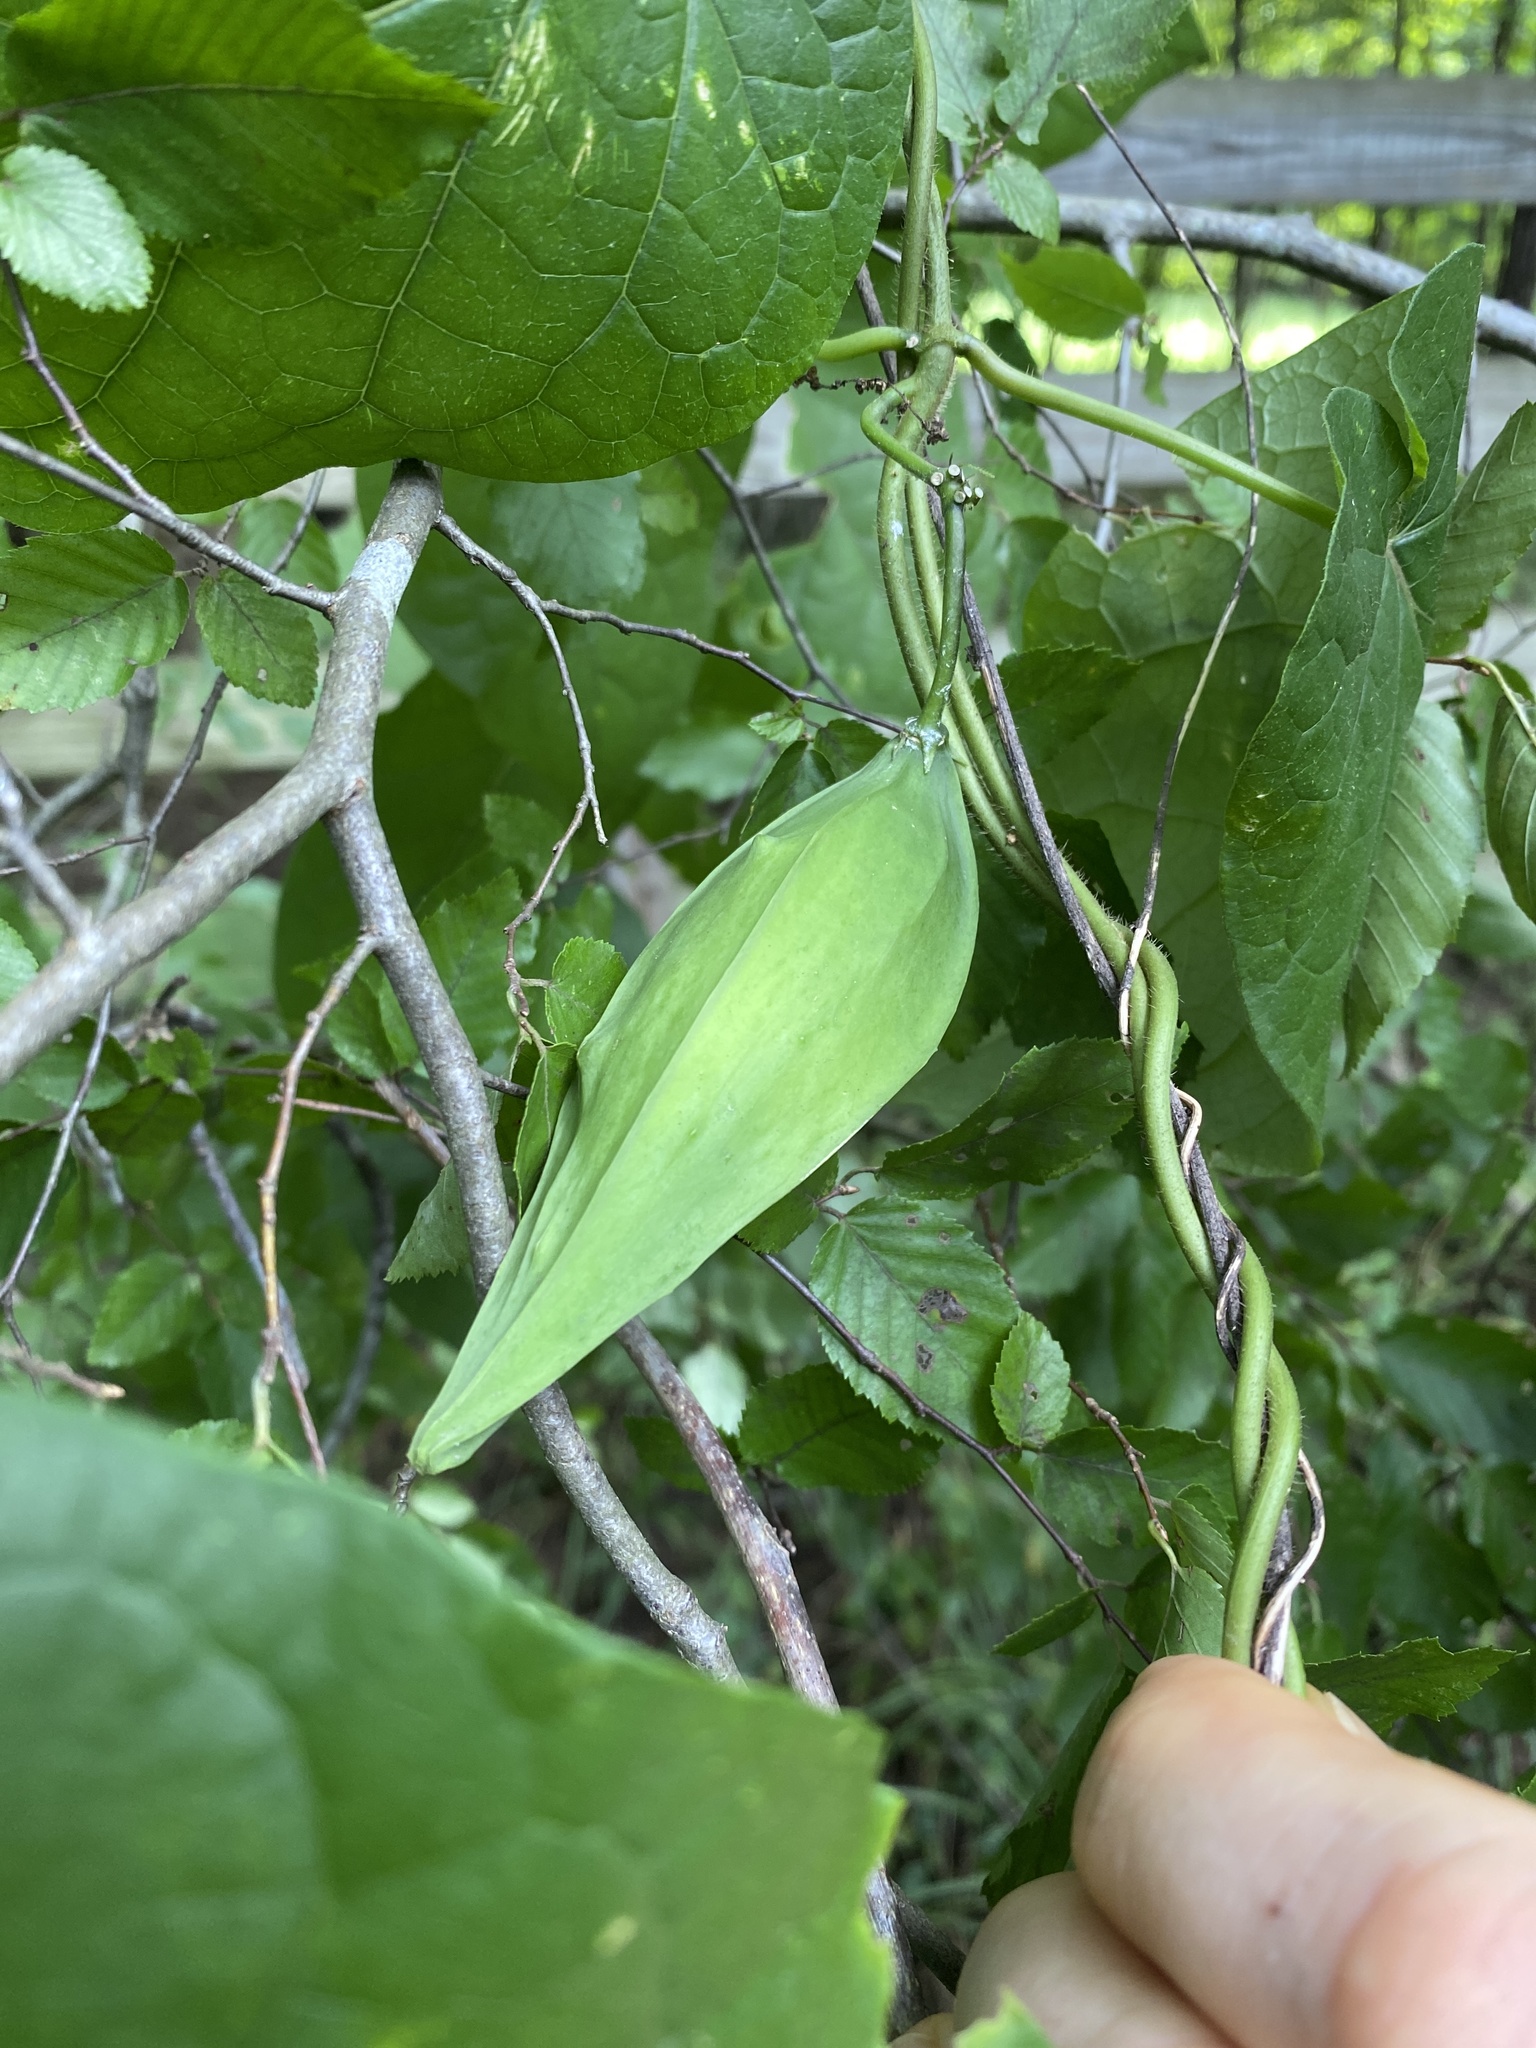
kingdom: Plantae
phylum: Tracheophyta
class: Magnoliopsida
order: Gentianales
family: Apocynaceae
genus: Gonolobus
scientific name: Gonolobus suberosus
